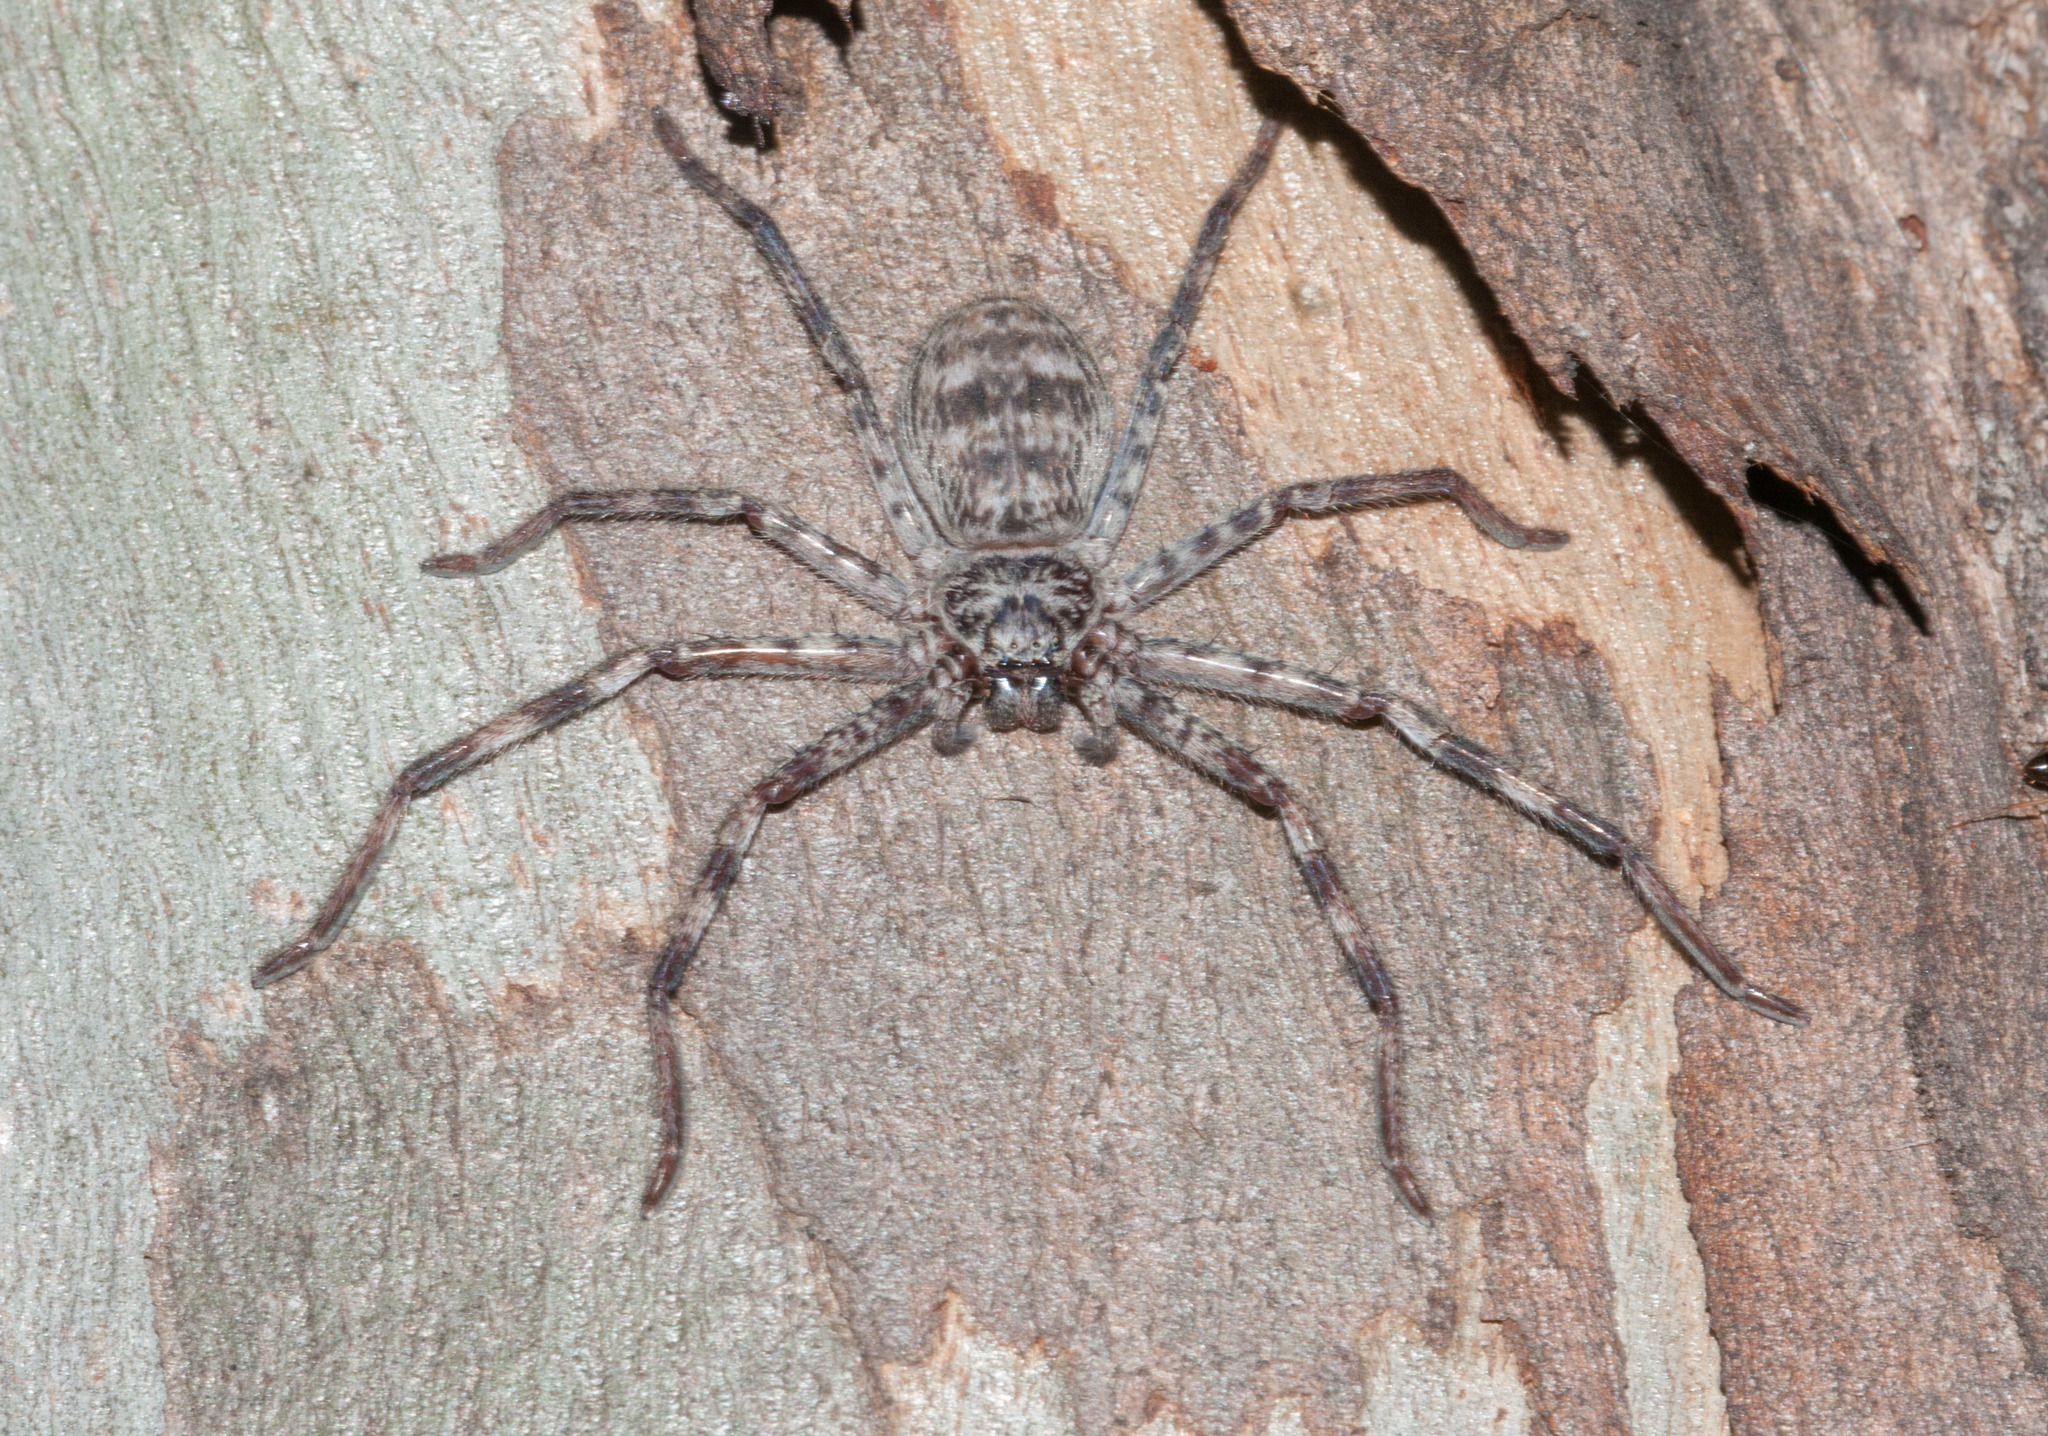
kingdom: Animalia
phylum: Arthropoda
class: Arachnida
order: Araneae
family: Sparassidae
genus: Holconia
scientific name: Holconia flindersi
